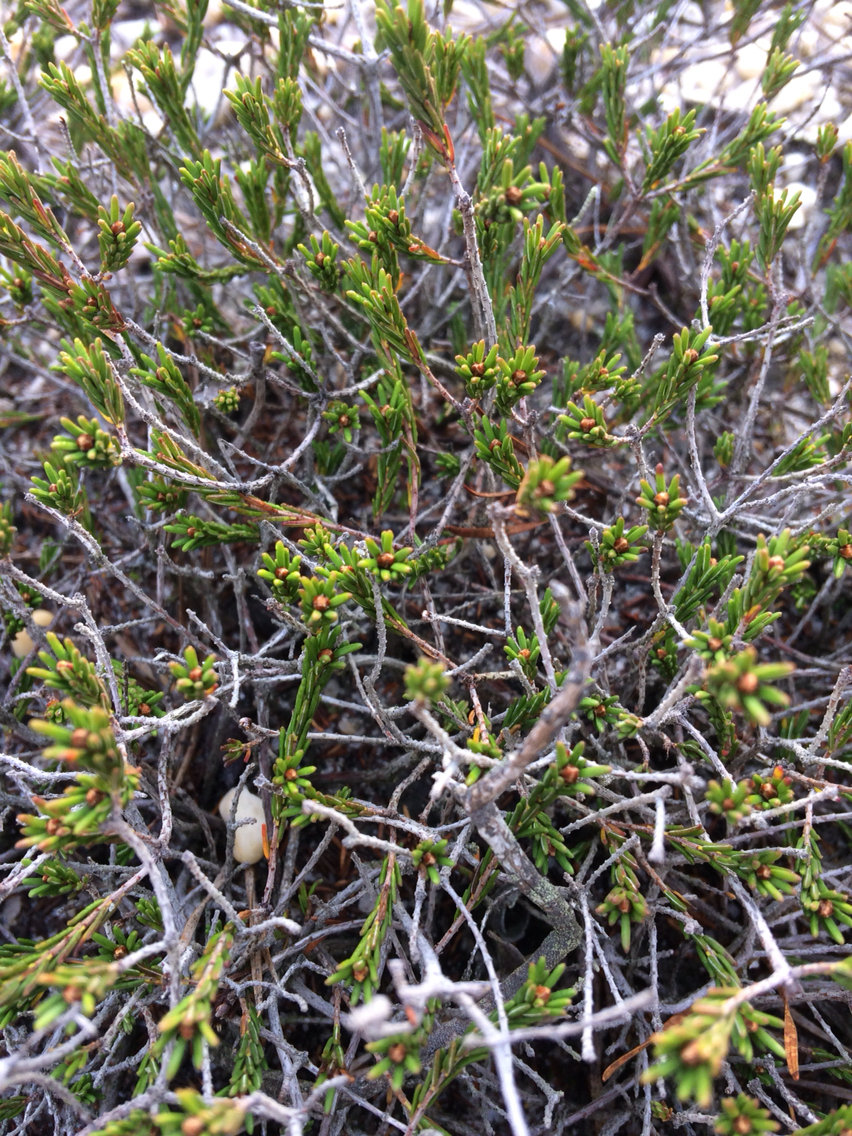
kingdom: Plantae
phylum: Tracheophyta
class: Magnoliopsida
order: Ericales
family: Ericaceae
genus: Corema
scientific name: Corema conradii
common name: Broom-crowberry
